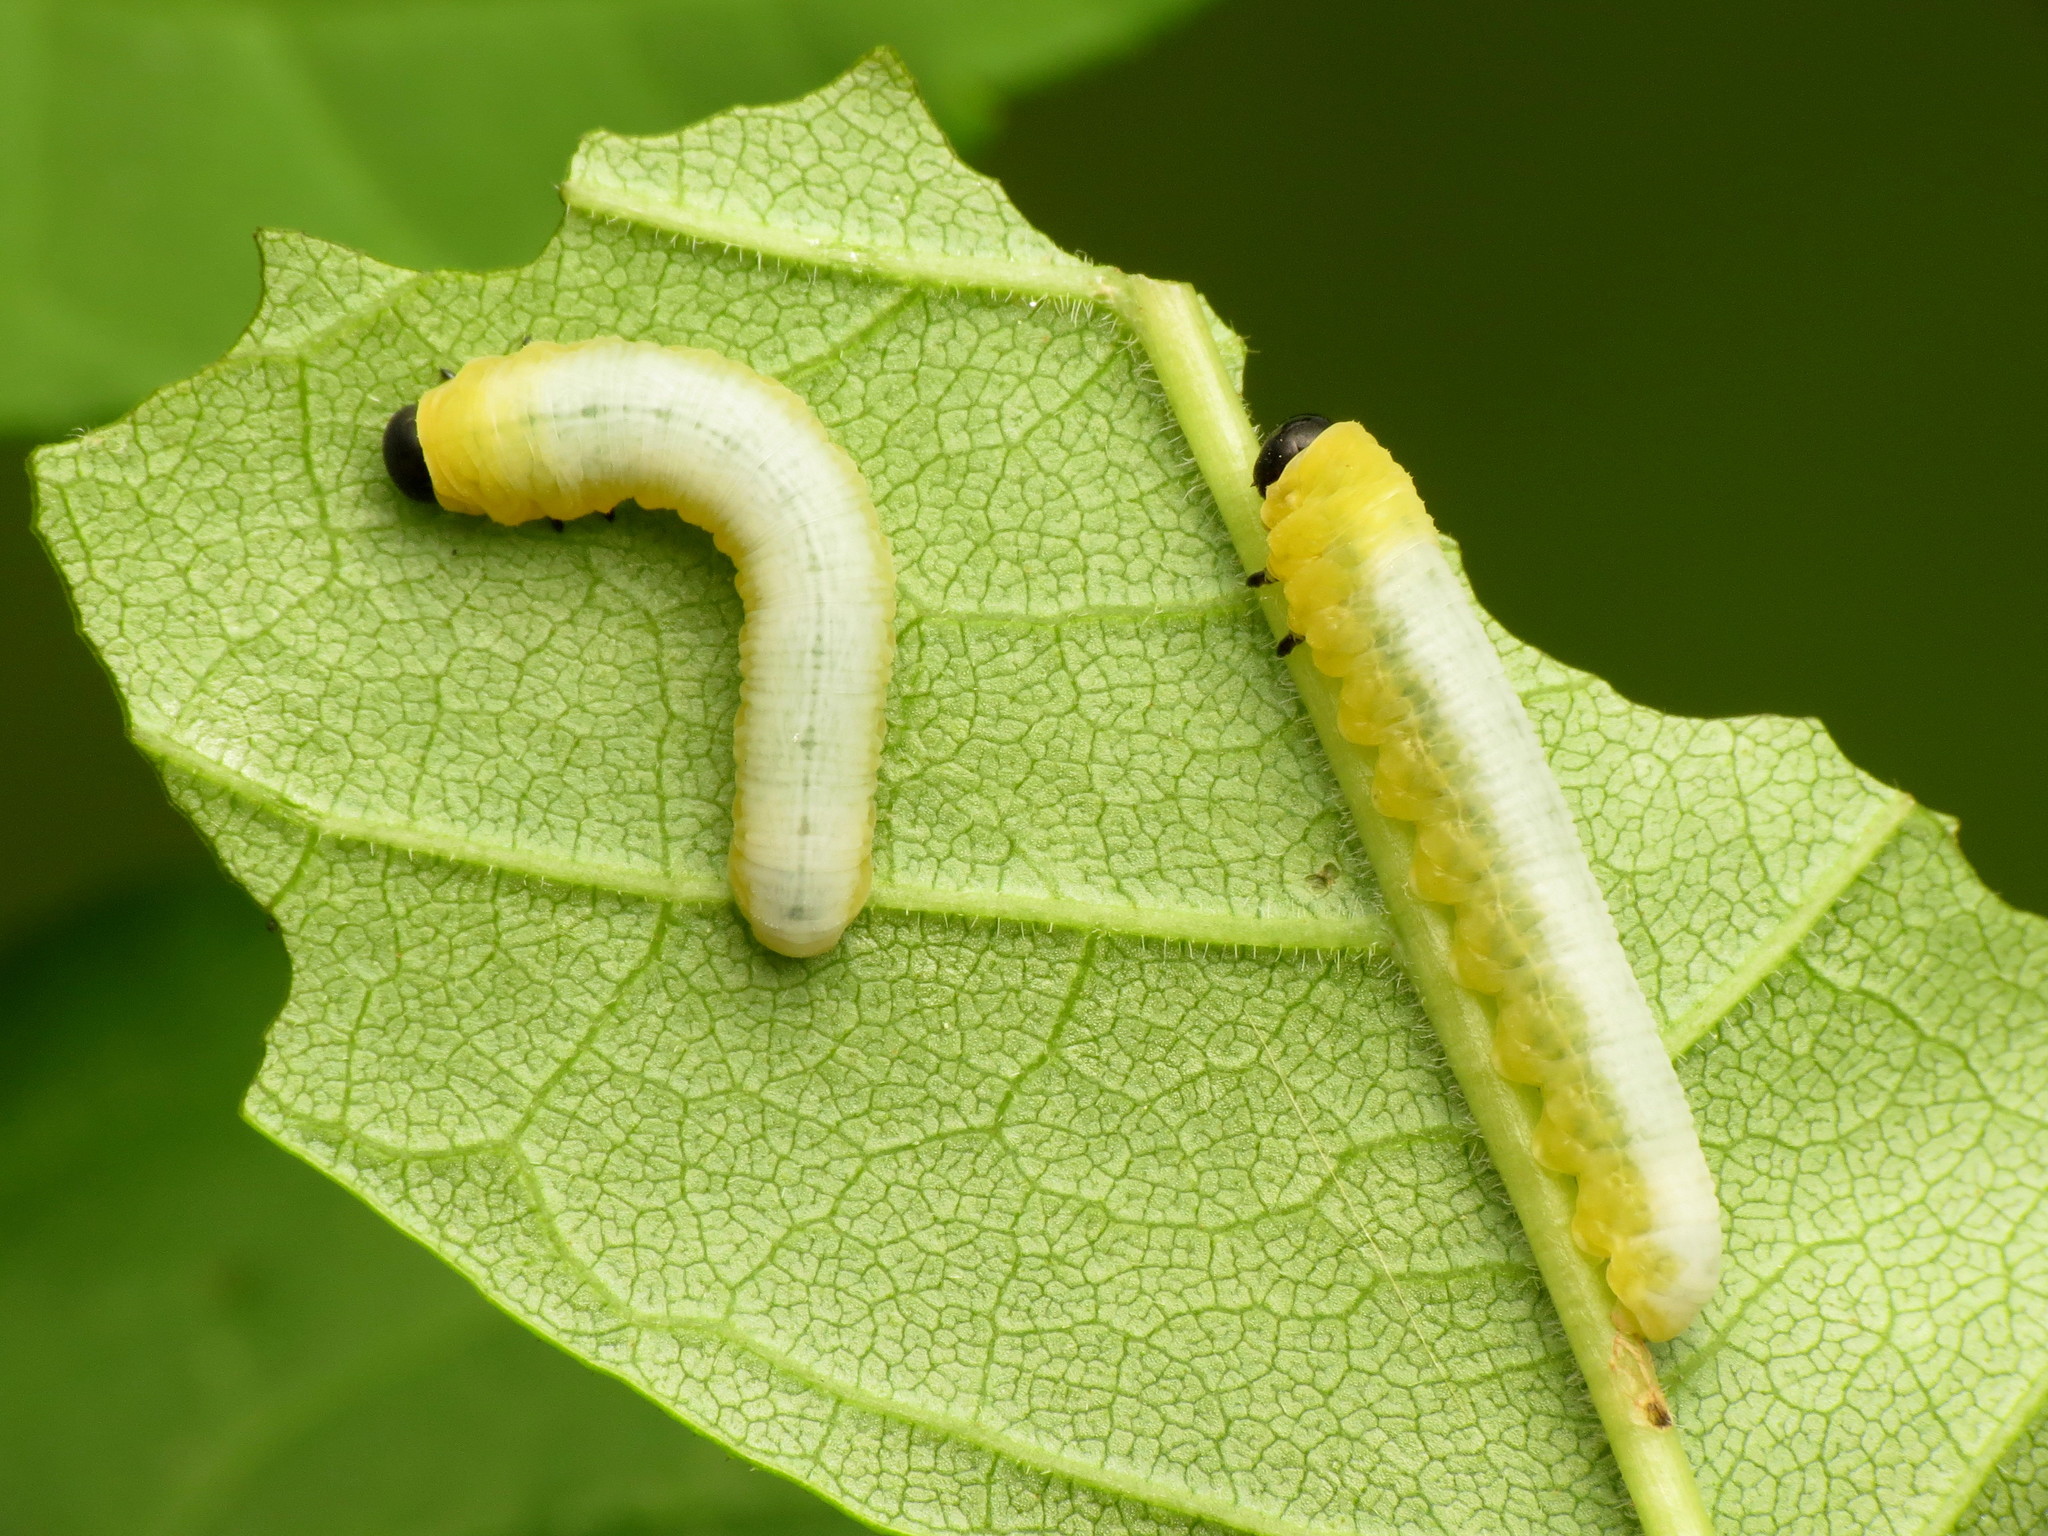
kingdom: Animalia
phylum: Arthropoda
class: Insecta
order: Hymenoptera
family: Tenthredinidae
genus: Tethida
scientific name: Tethida barda
